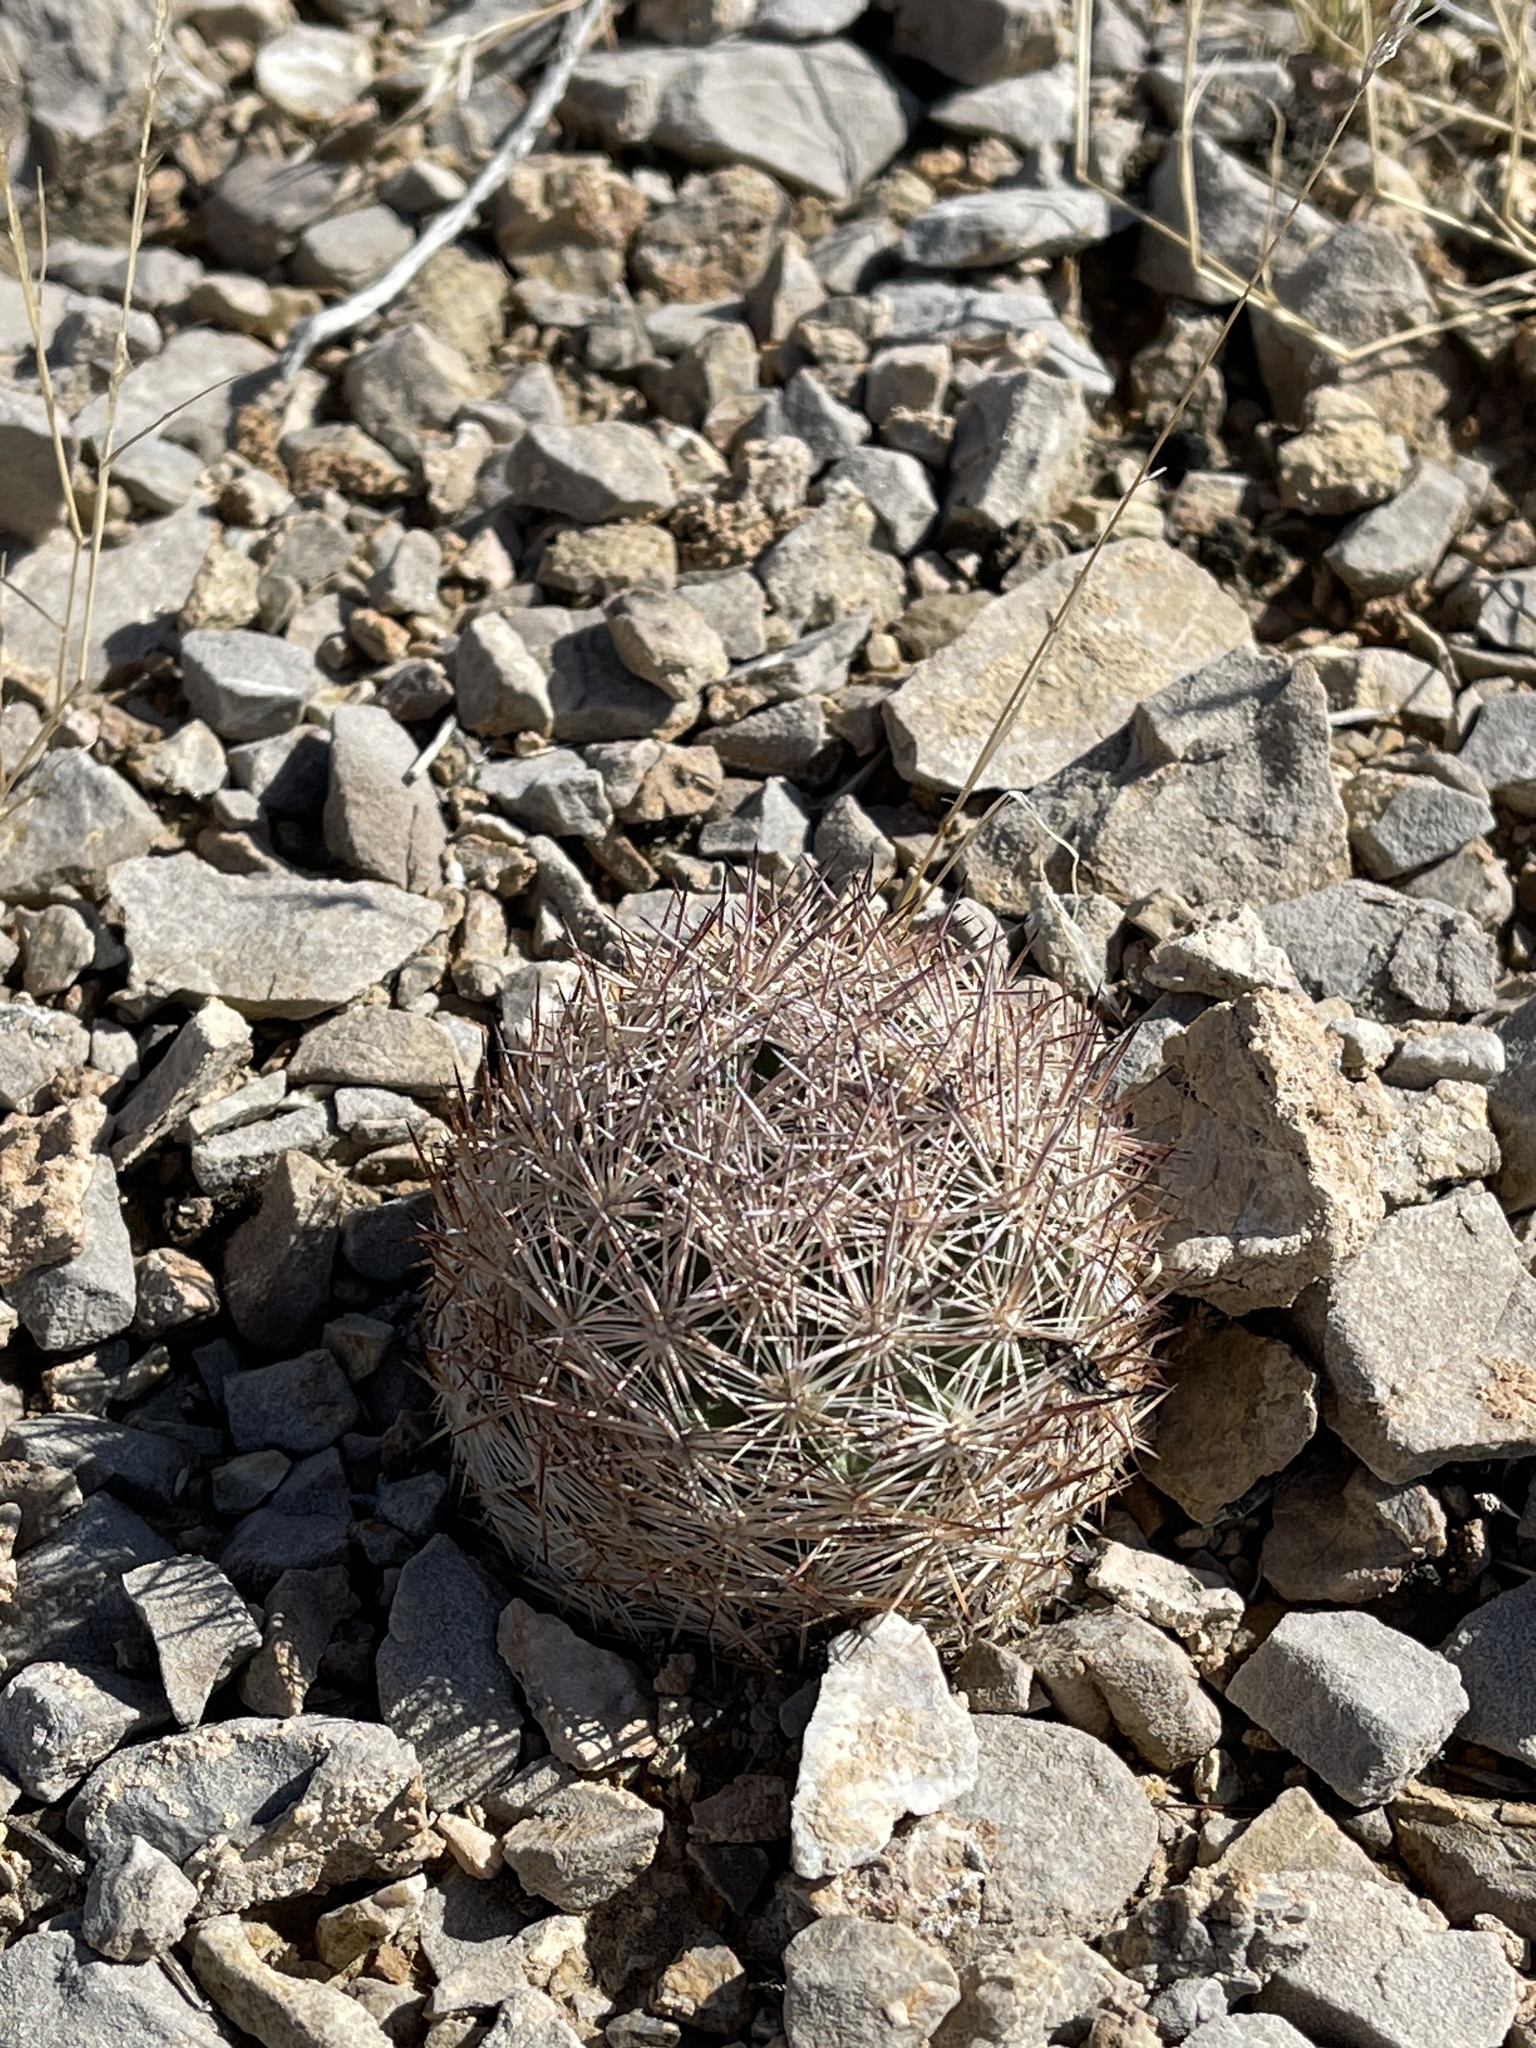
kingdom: Plantae
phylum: Tracheophyta
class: Magnoliopsida
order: Caryophyllales
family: Cactaceae
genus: Pelecyphora
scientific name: Pelecyphora dasyacantha
